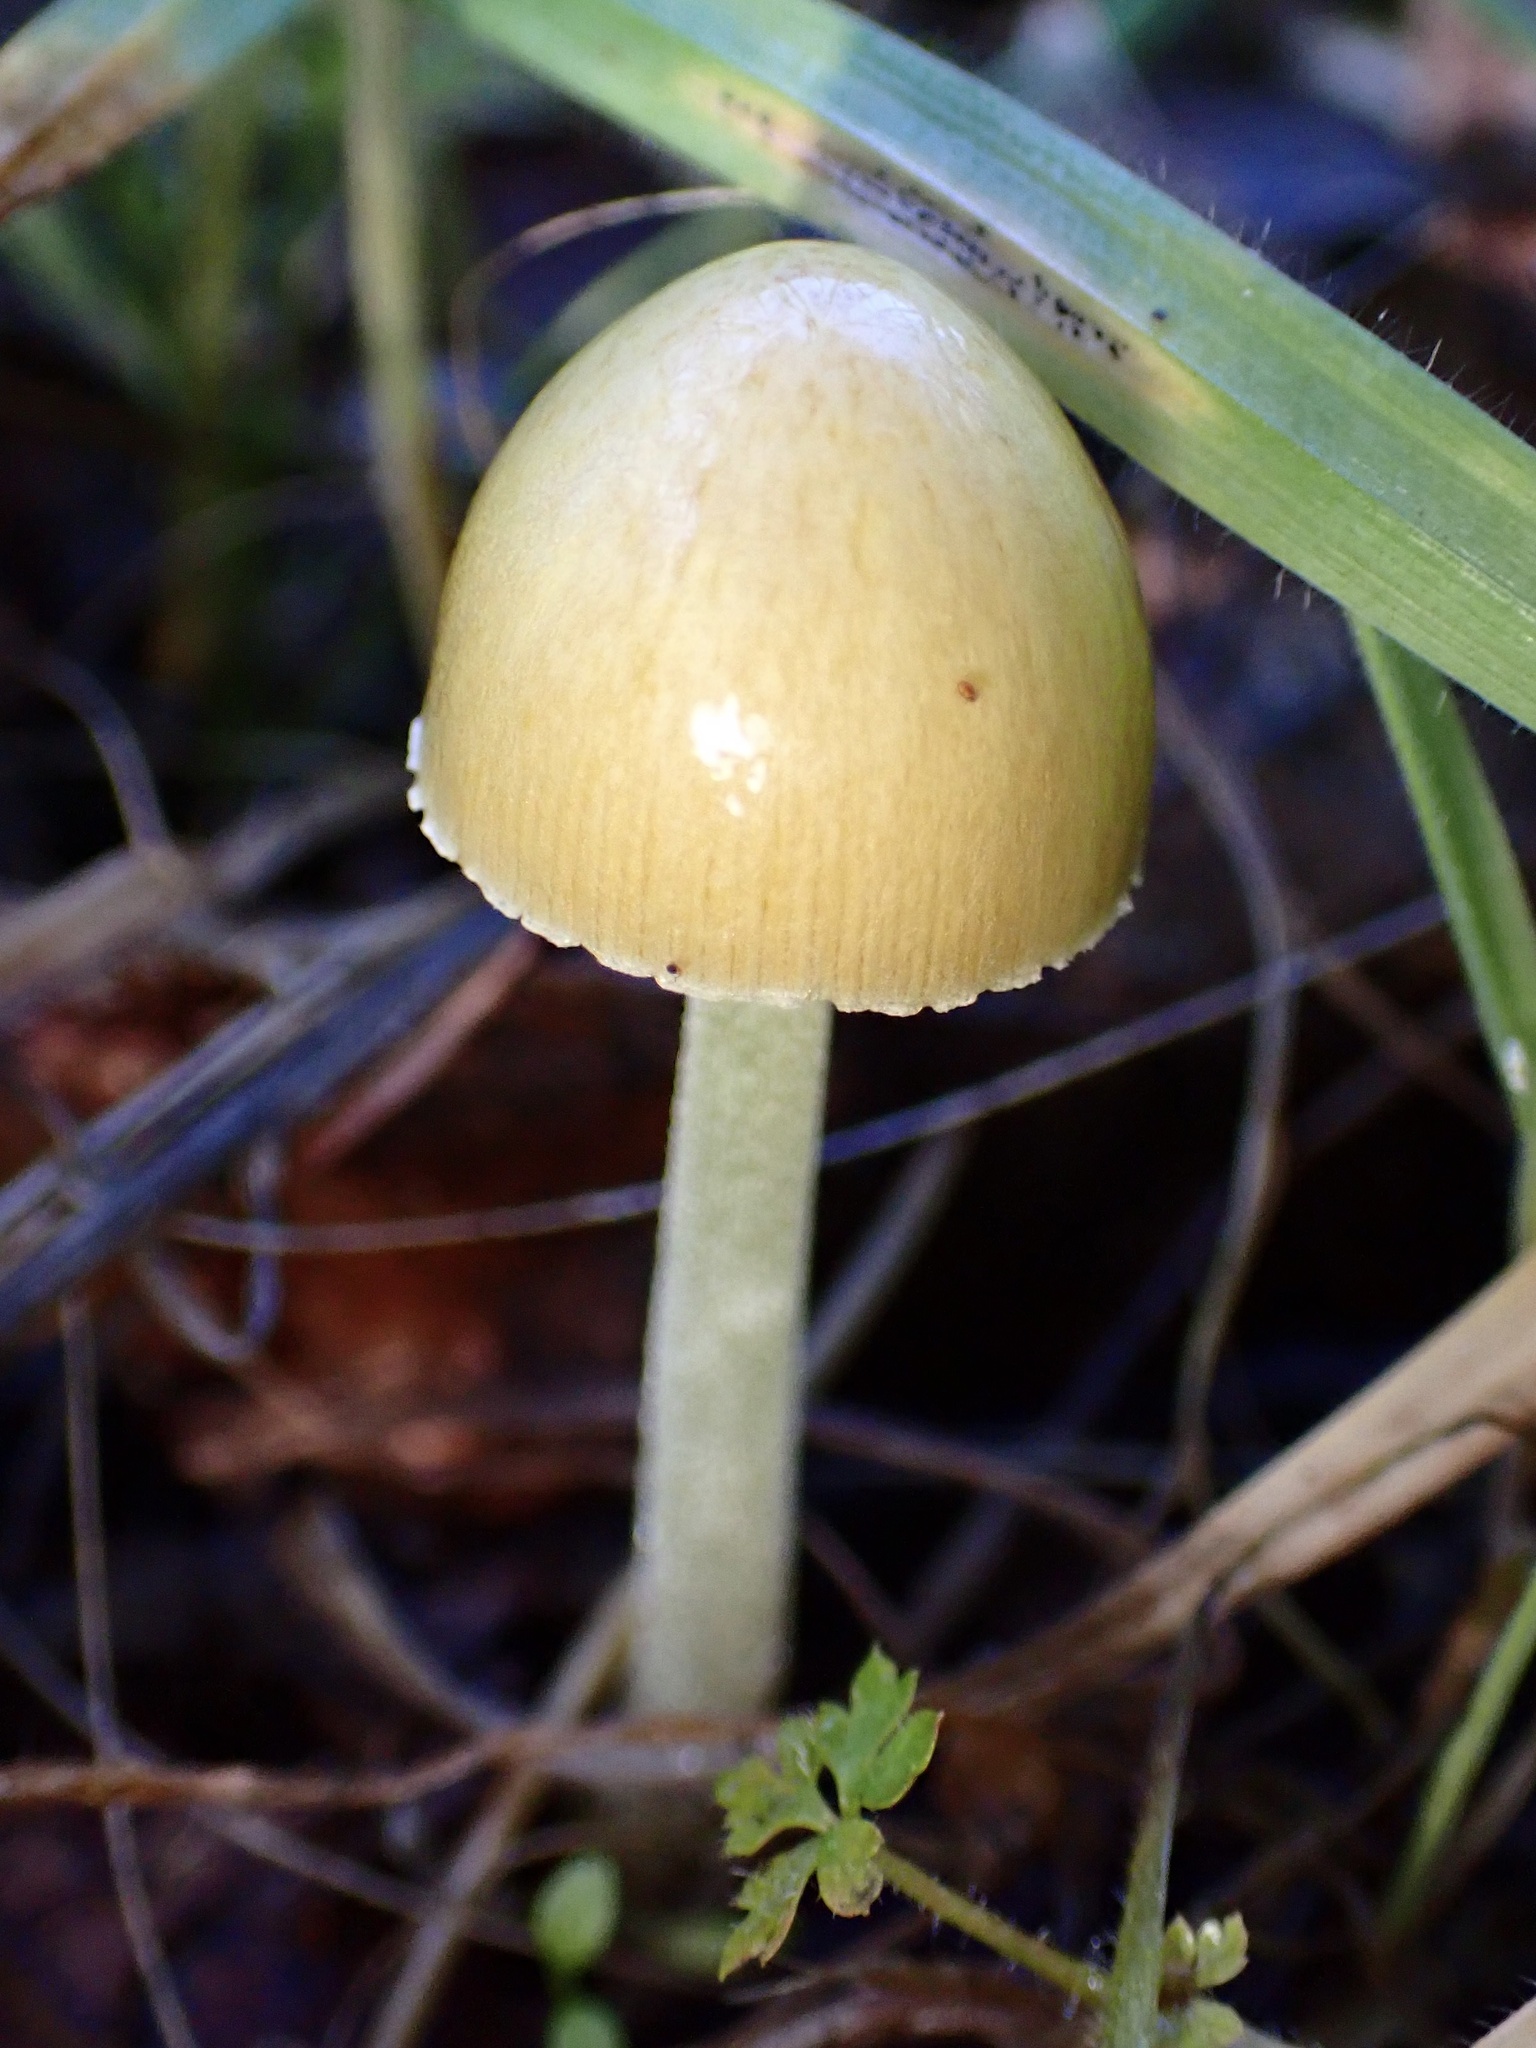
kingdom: Fungi
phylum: Basidiomycota
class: Agaricomycetes
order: Agaricales
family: Bolbitiaceae
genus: Bolbitius
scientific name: Bolbitius titubans
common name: Yellow fieldcap
